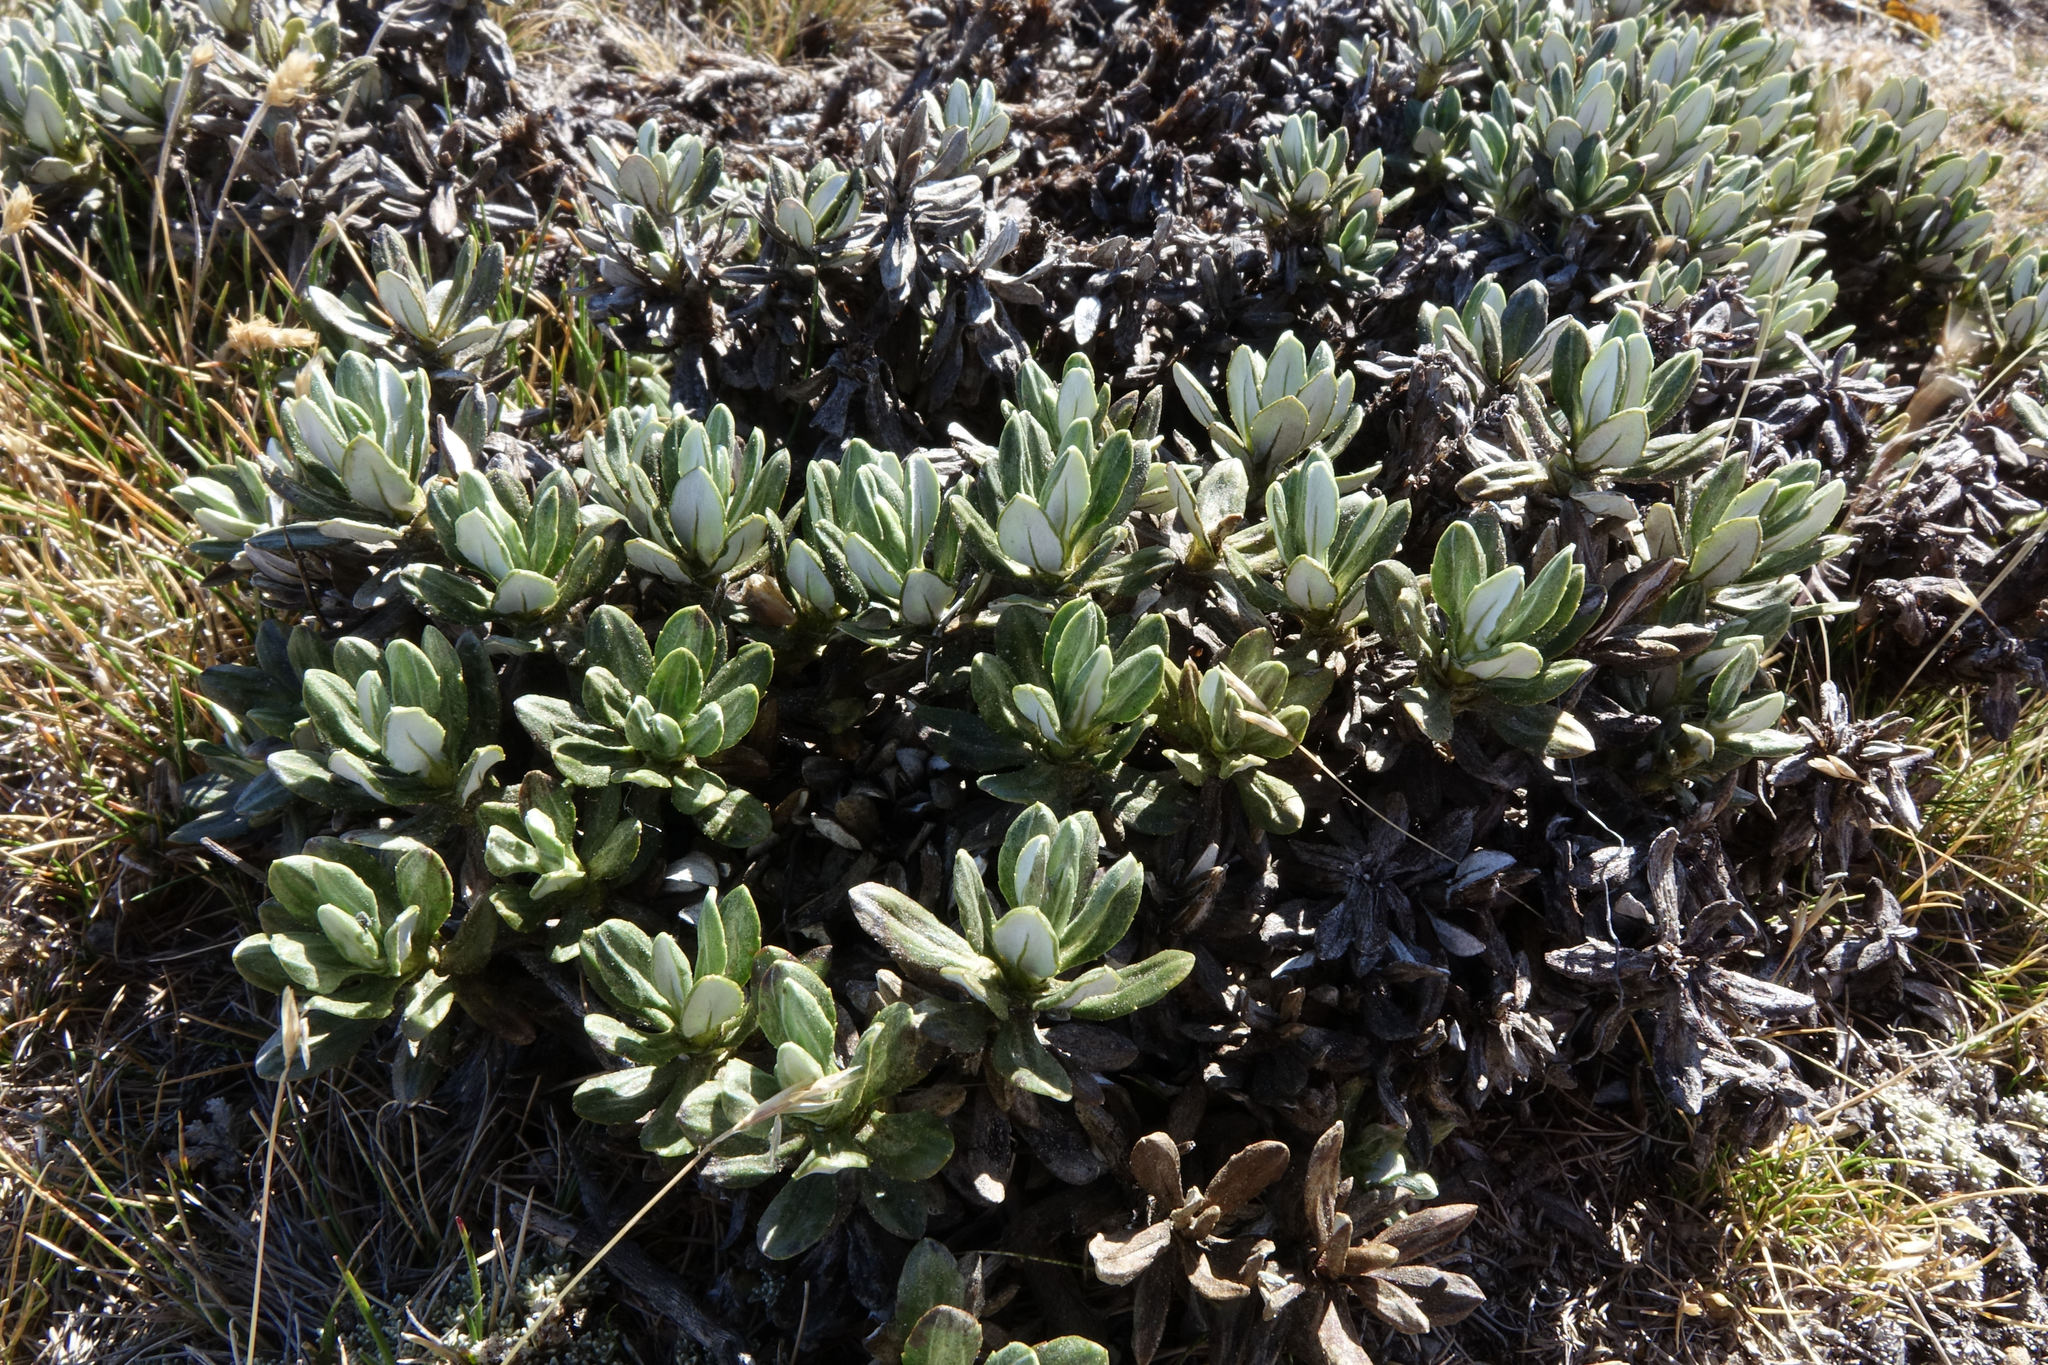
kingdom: Plantae
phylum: Tracheophyta
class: Magnoliopsida
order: Asterales
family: Asteraceae
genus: Celmisia
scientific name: Celmisia brevifolia
